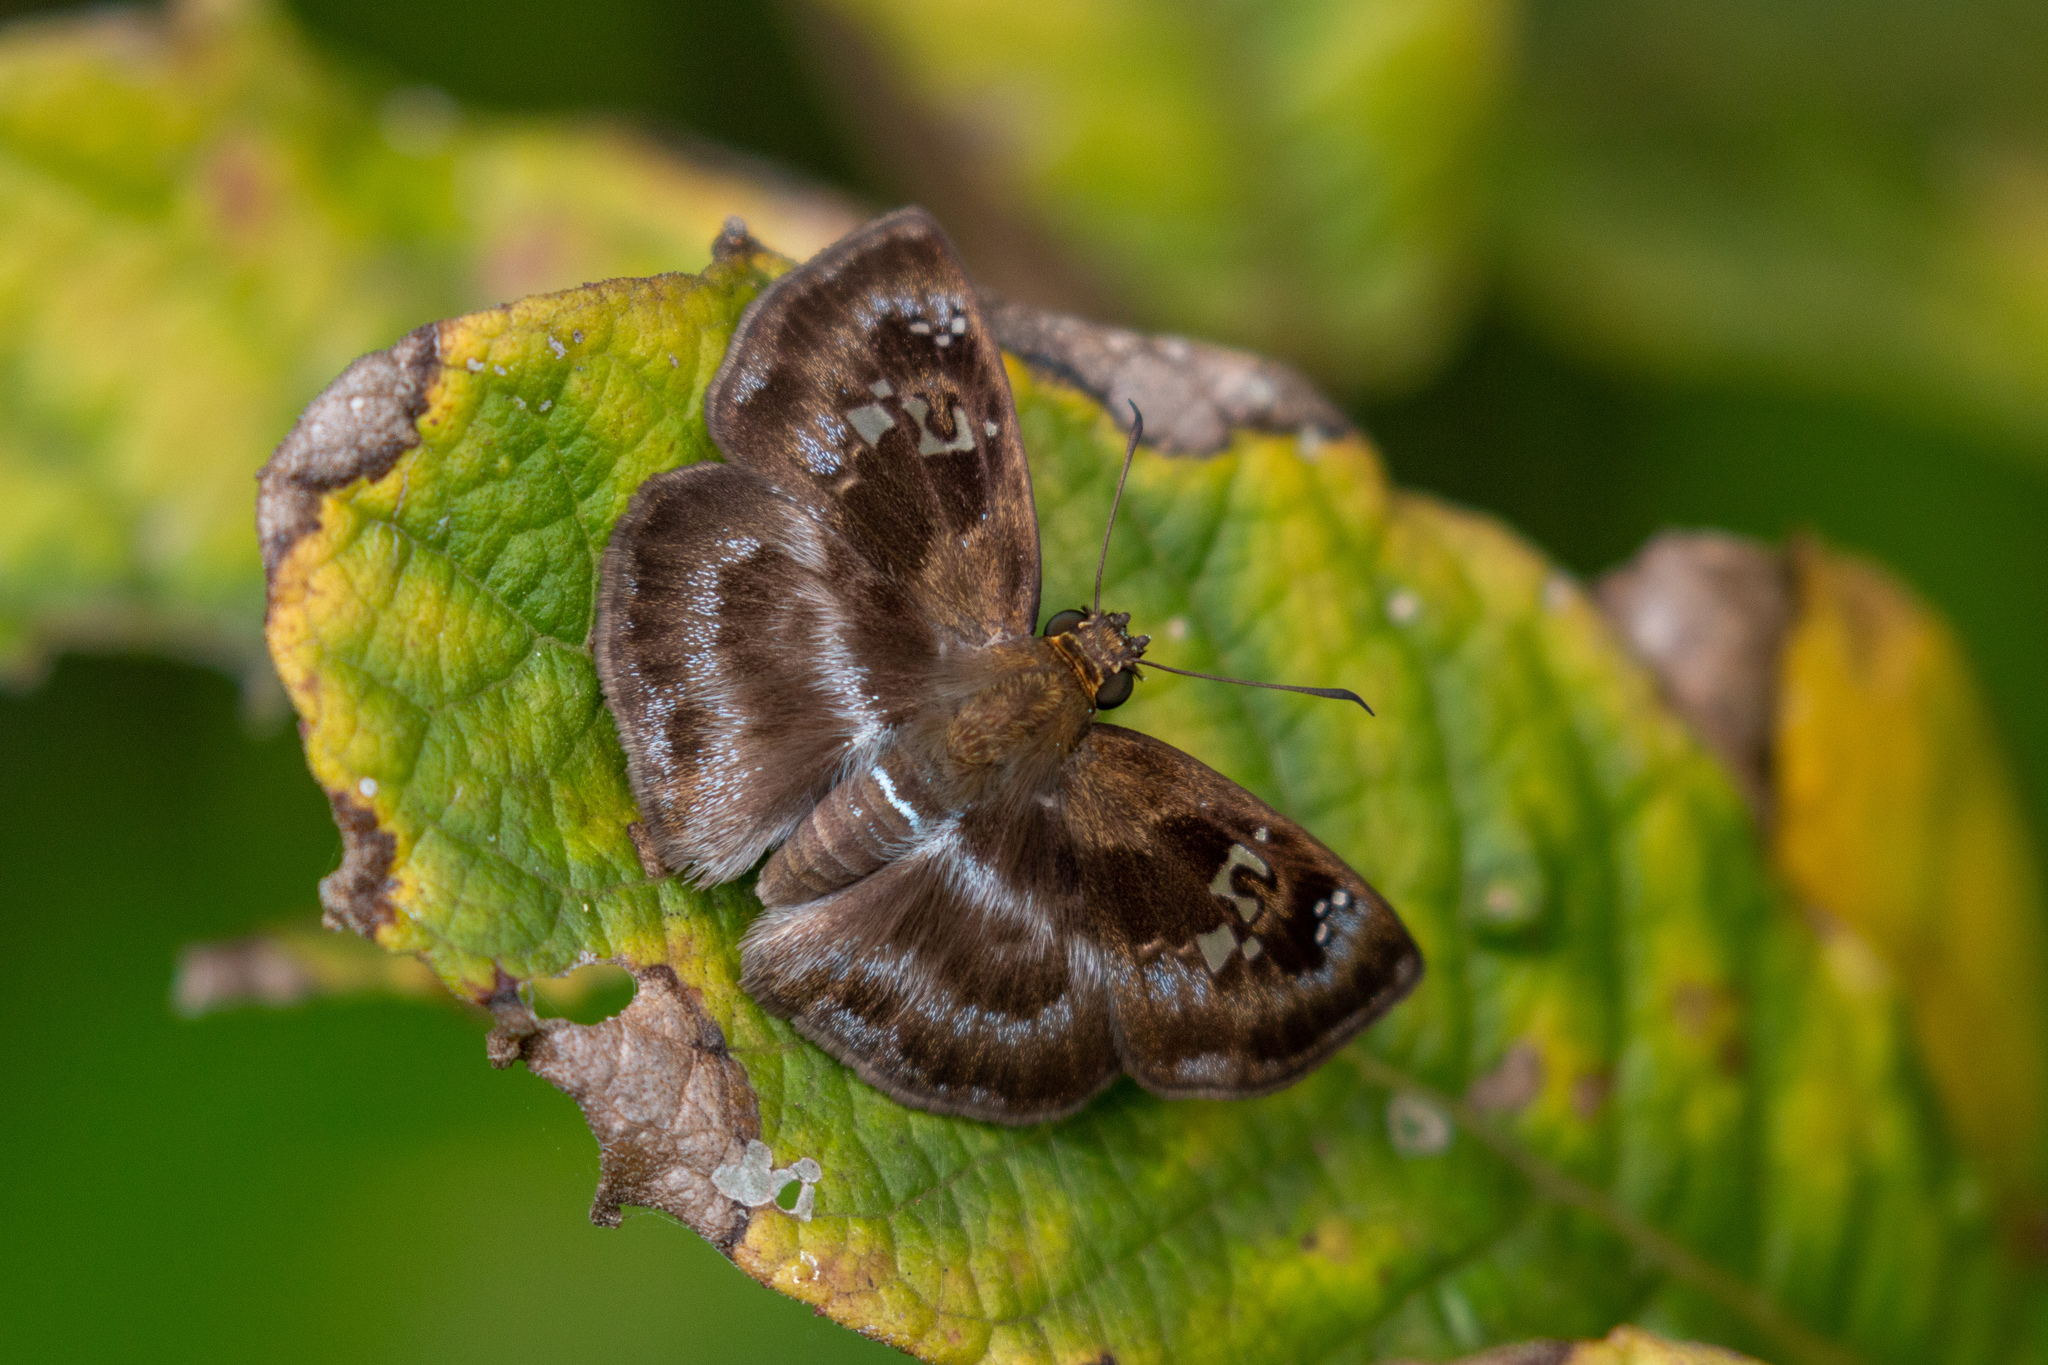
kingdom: Animalia
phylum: Arthropoda
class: Insecta
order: Lepidoptera
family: Hesperiidae
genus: Quadrus
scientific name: Quadrus cerialis
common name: Common blue-skipper
